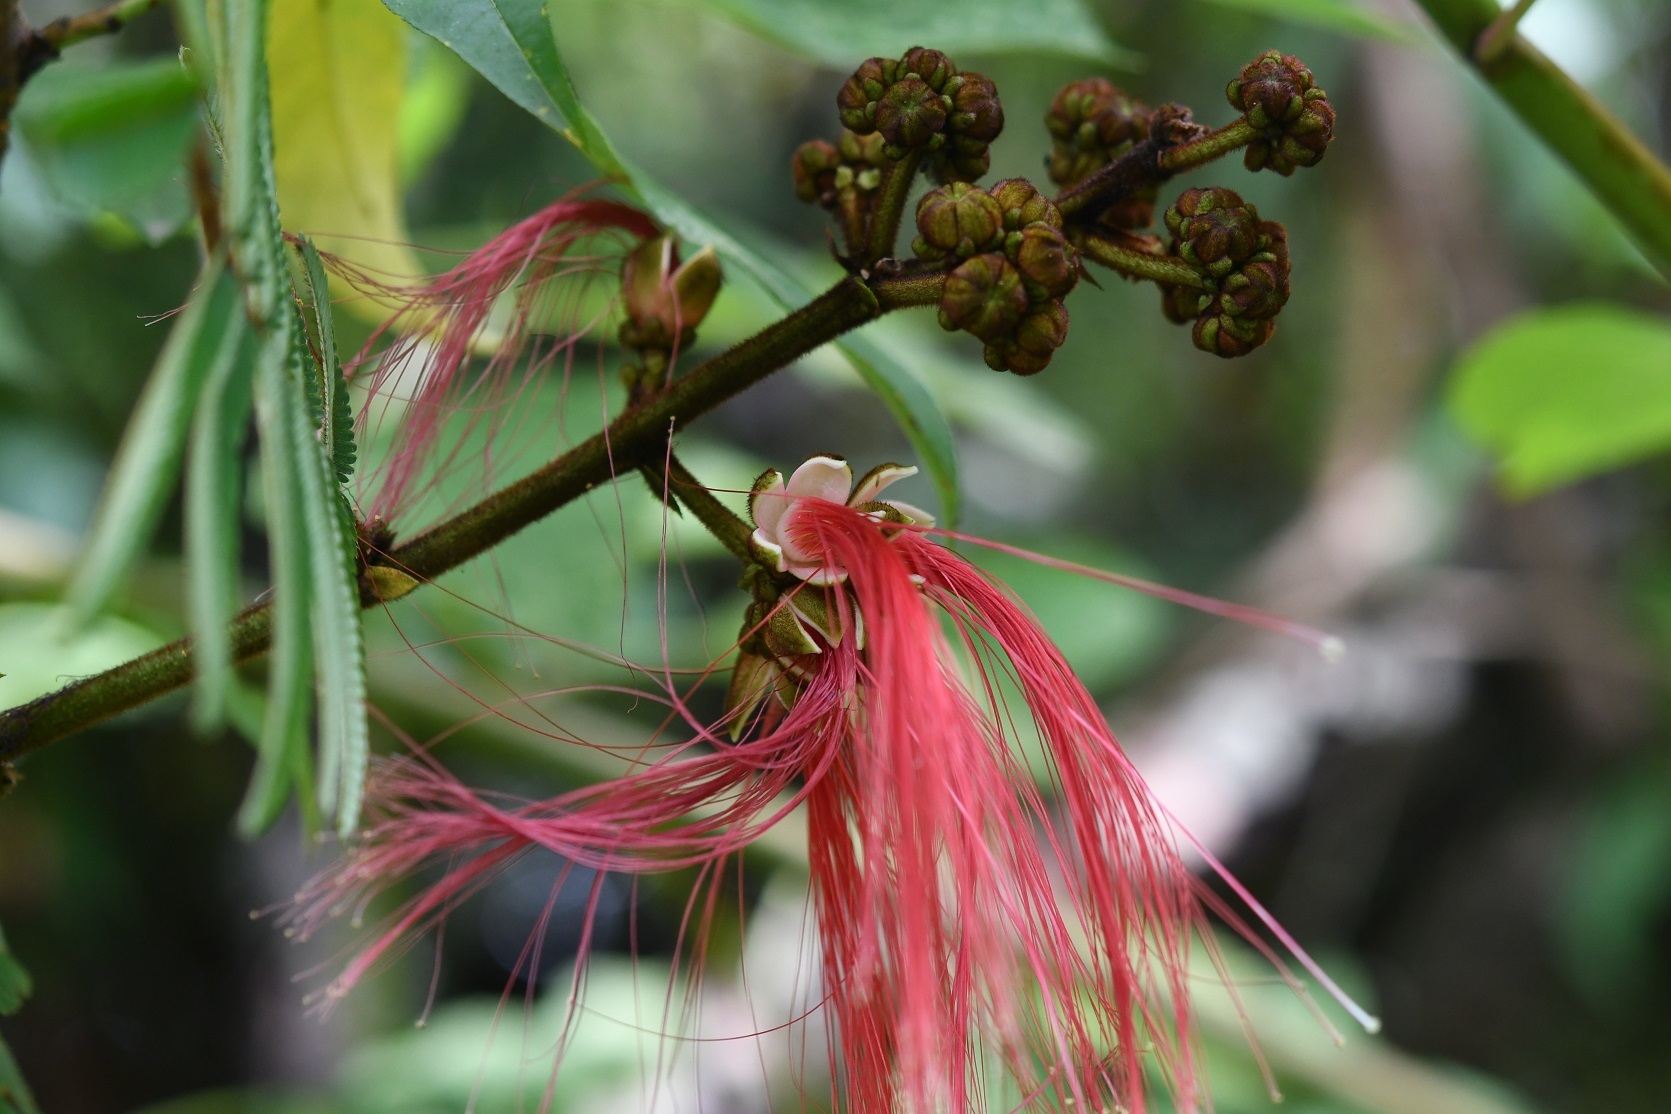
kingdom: Plantae
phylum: Tracheophyta
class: Magnoliopsida
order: Fabales
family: Fabaceae
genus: Calliandra
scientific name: Calliandra houstoniana
